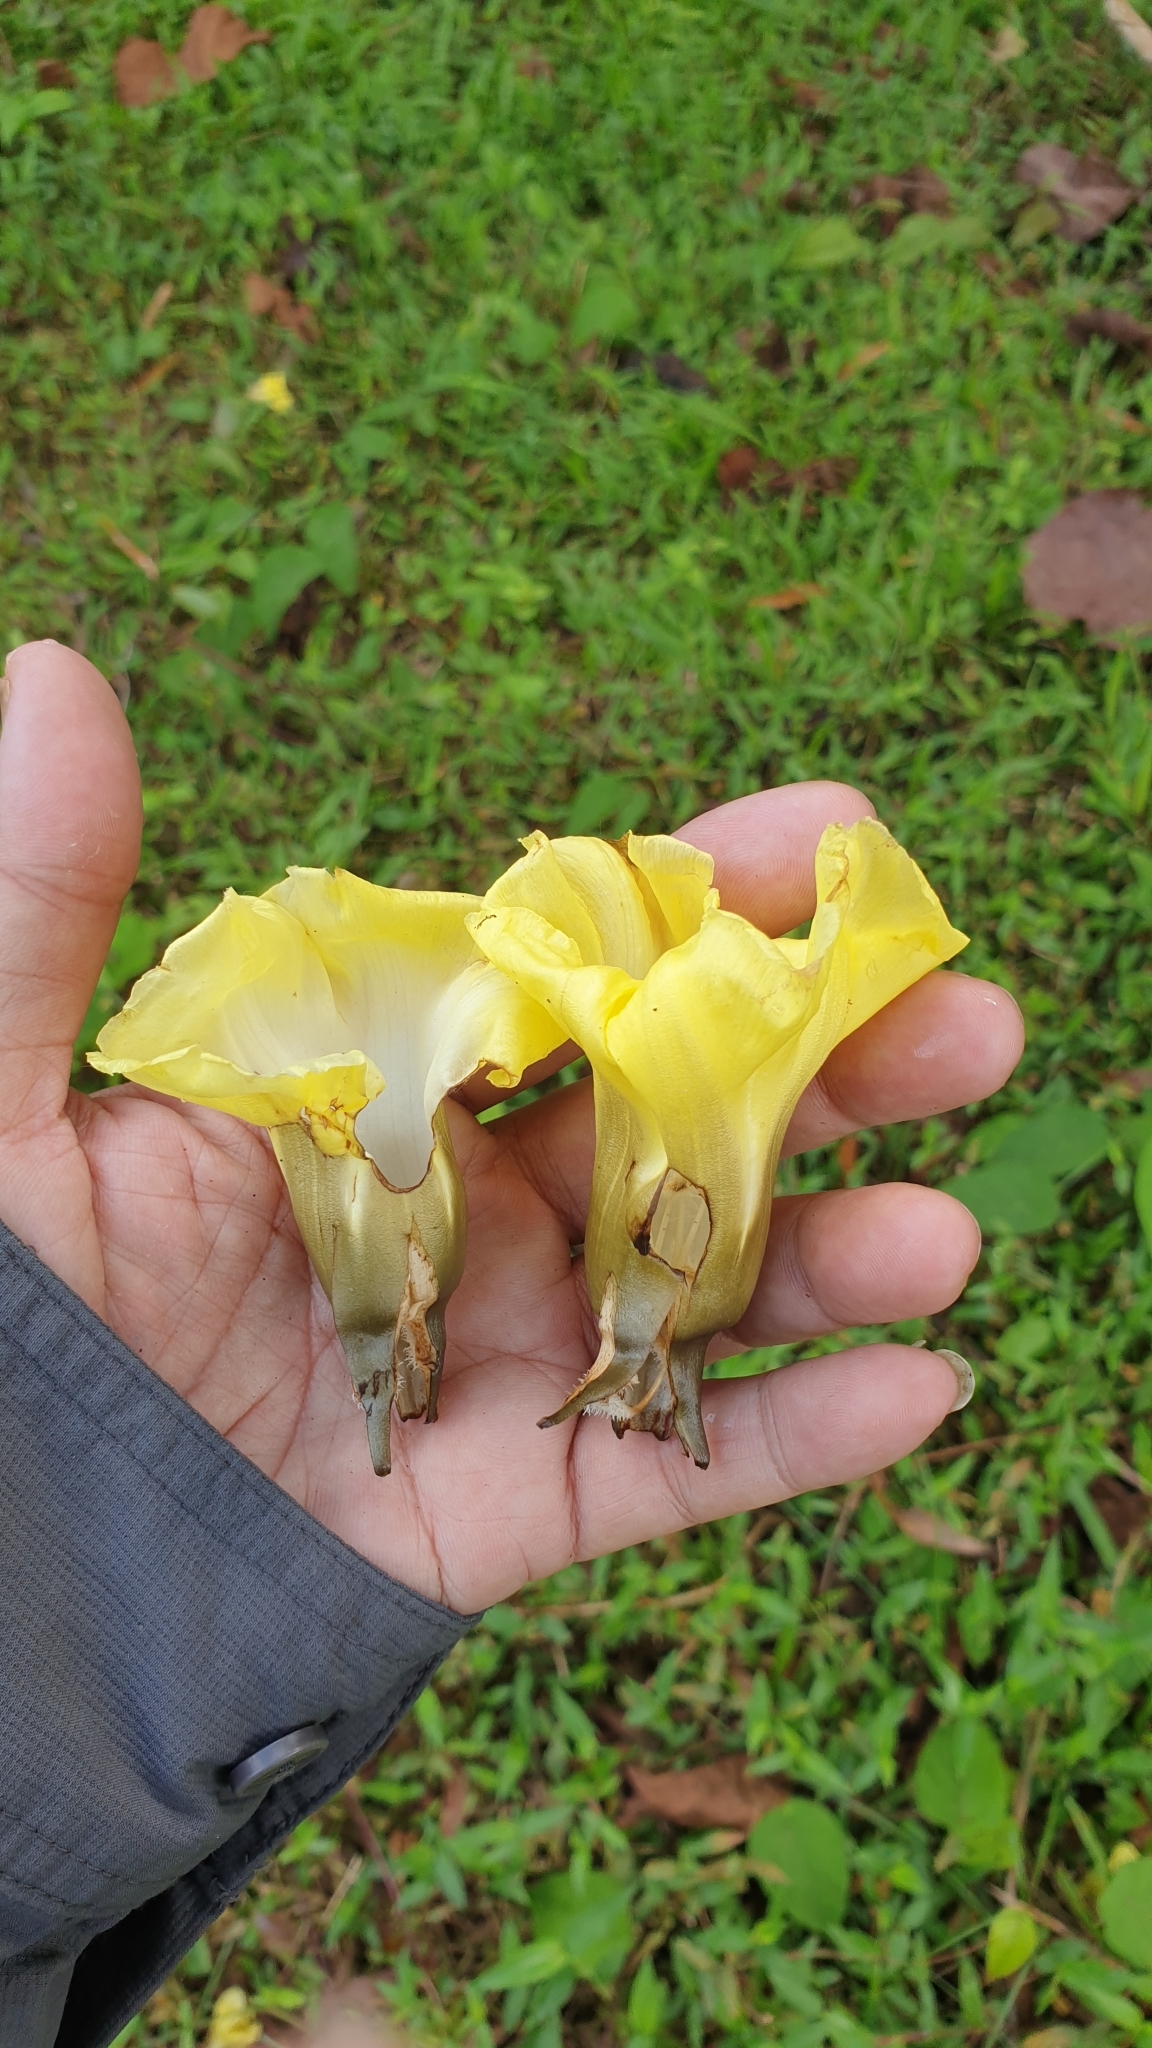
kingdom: Plantae
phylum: Tracheophyta
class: Magnoliopsida
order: Solanales
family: Convolvulaceae
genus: Decalobanthus
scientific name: Decalobanthus peltatus
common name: Merremia
